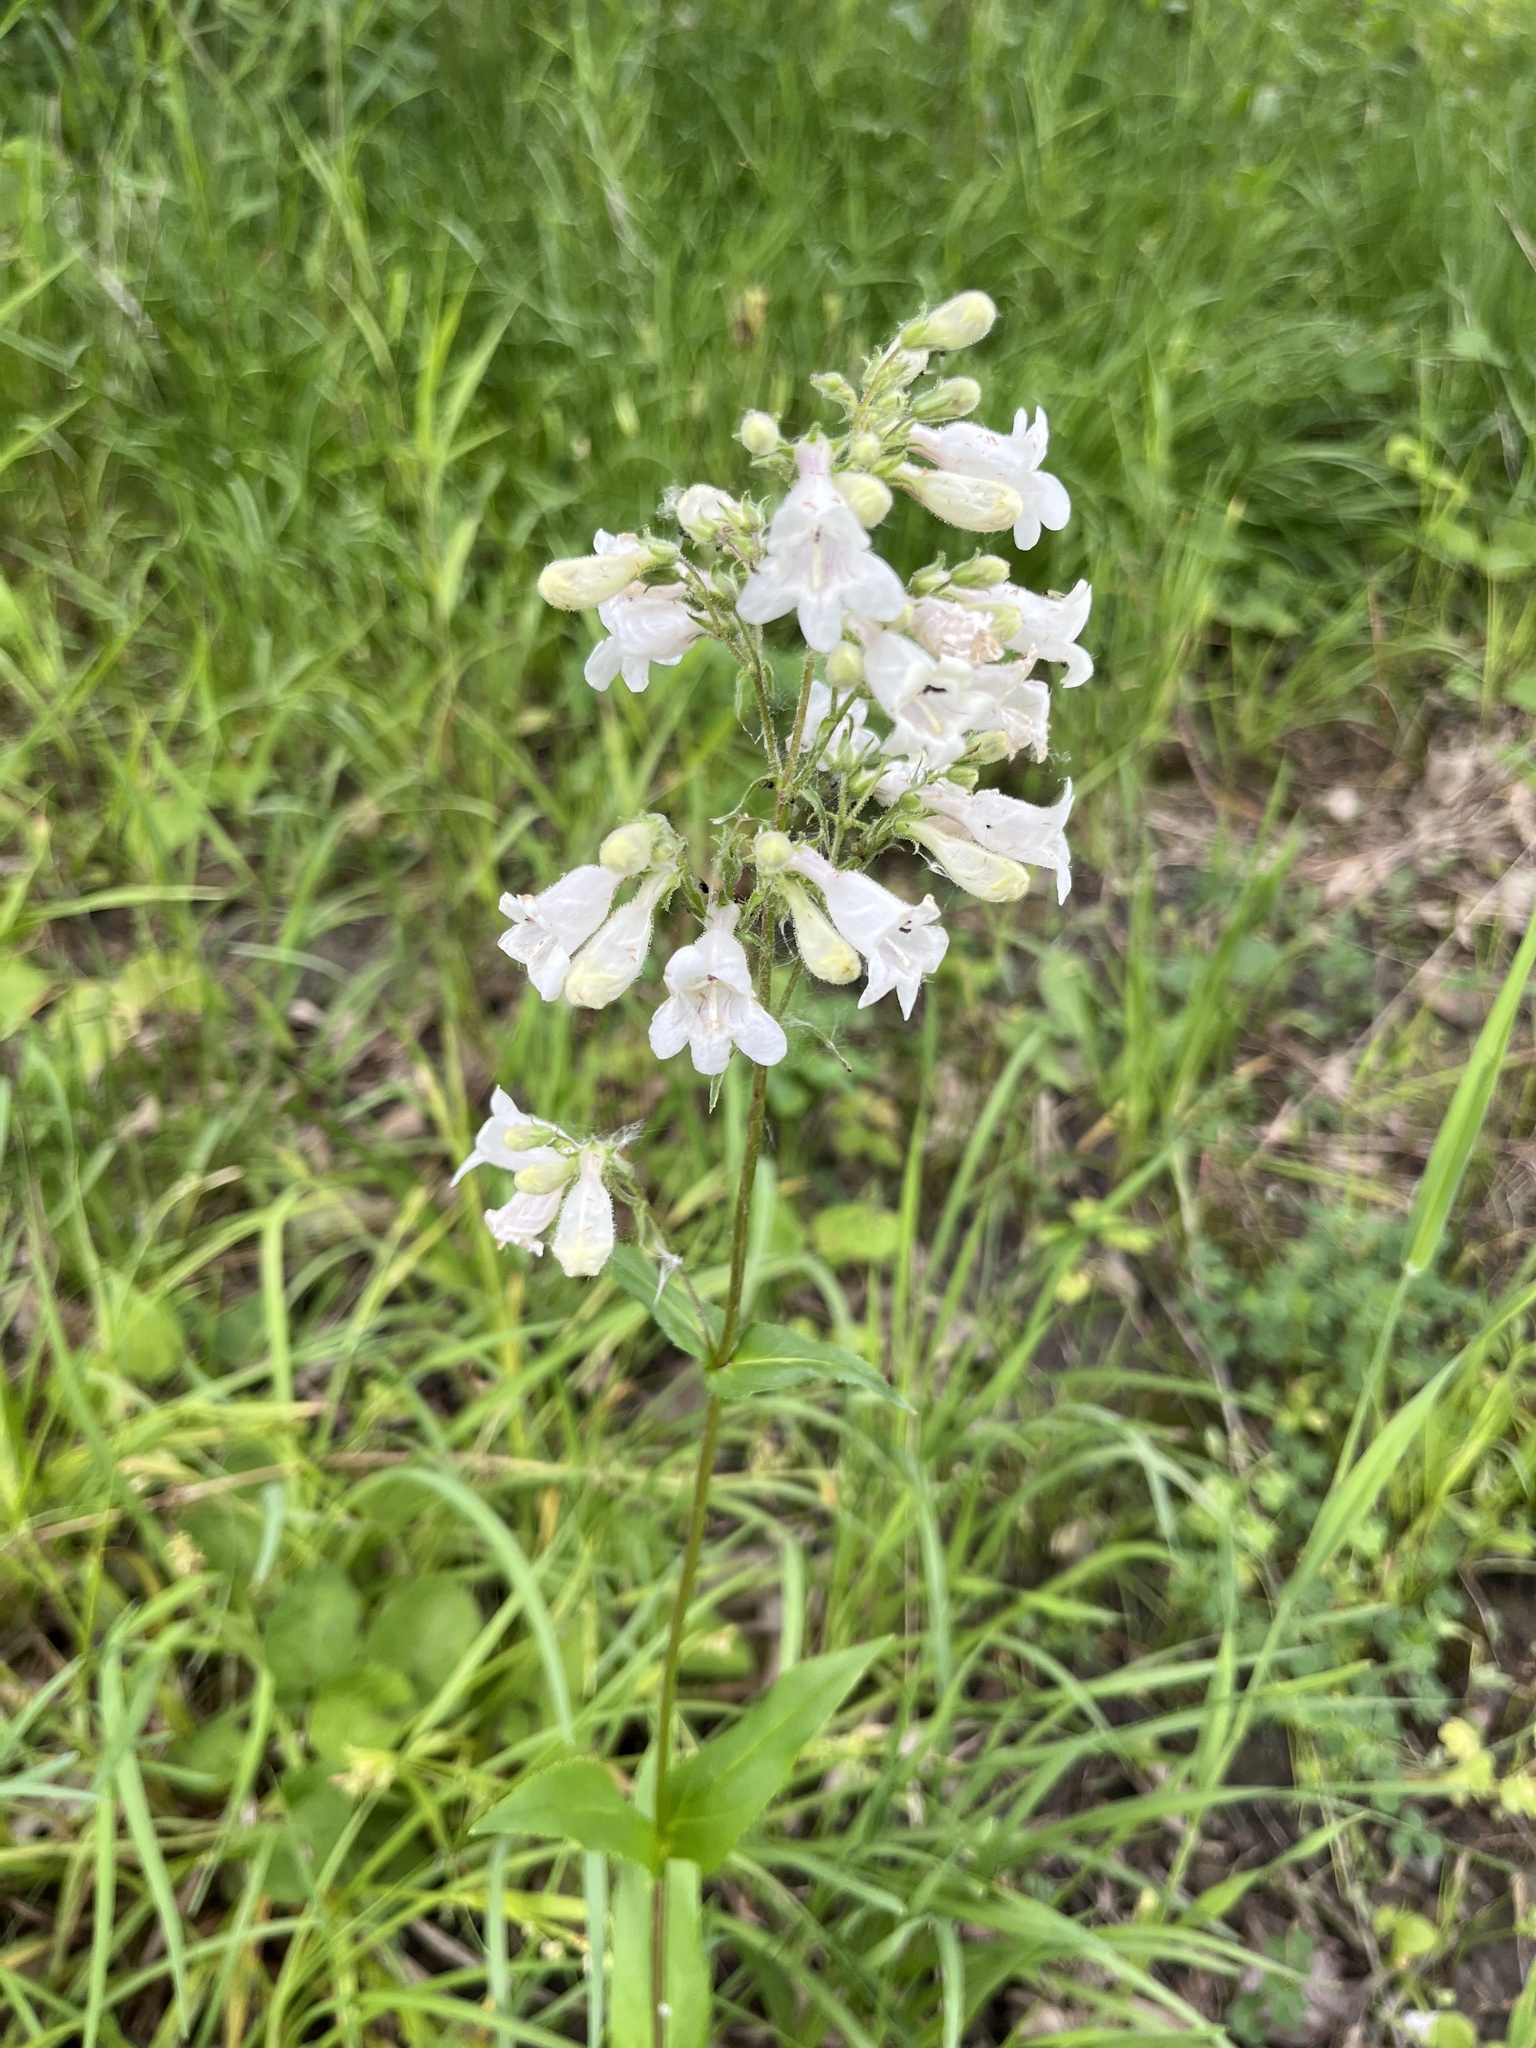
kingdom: Plantae
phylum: Tracheophyta
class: Magnoliopsida
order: Lamiales
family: Plantaginaceae
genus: Penstemon
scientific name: Penstemon digitalis
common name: Foxglove beardtongue
